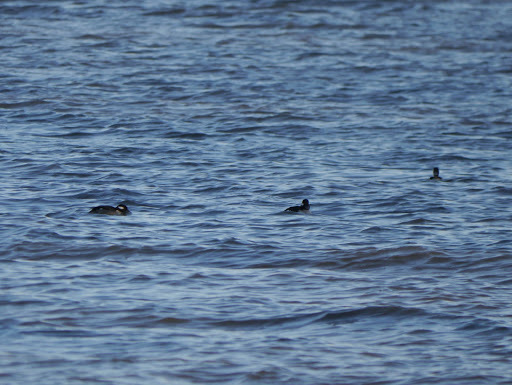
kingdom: Animalia
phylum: Chordata
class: Aves
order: Anseriformes
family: Anatidae
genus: Bucephala
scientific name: Bucephala albeola
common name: Bufflehead
